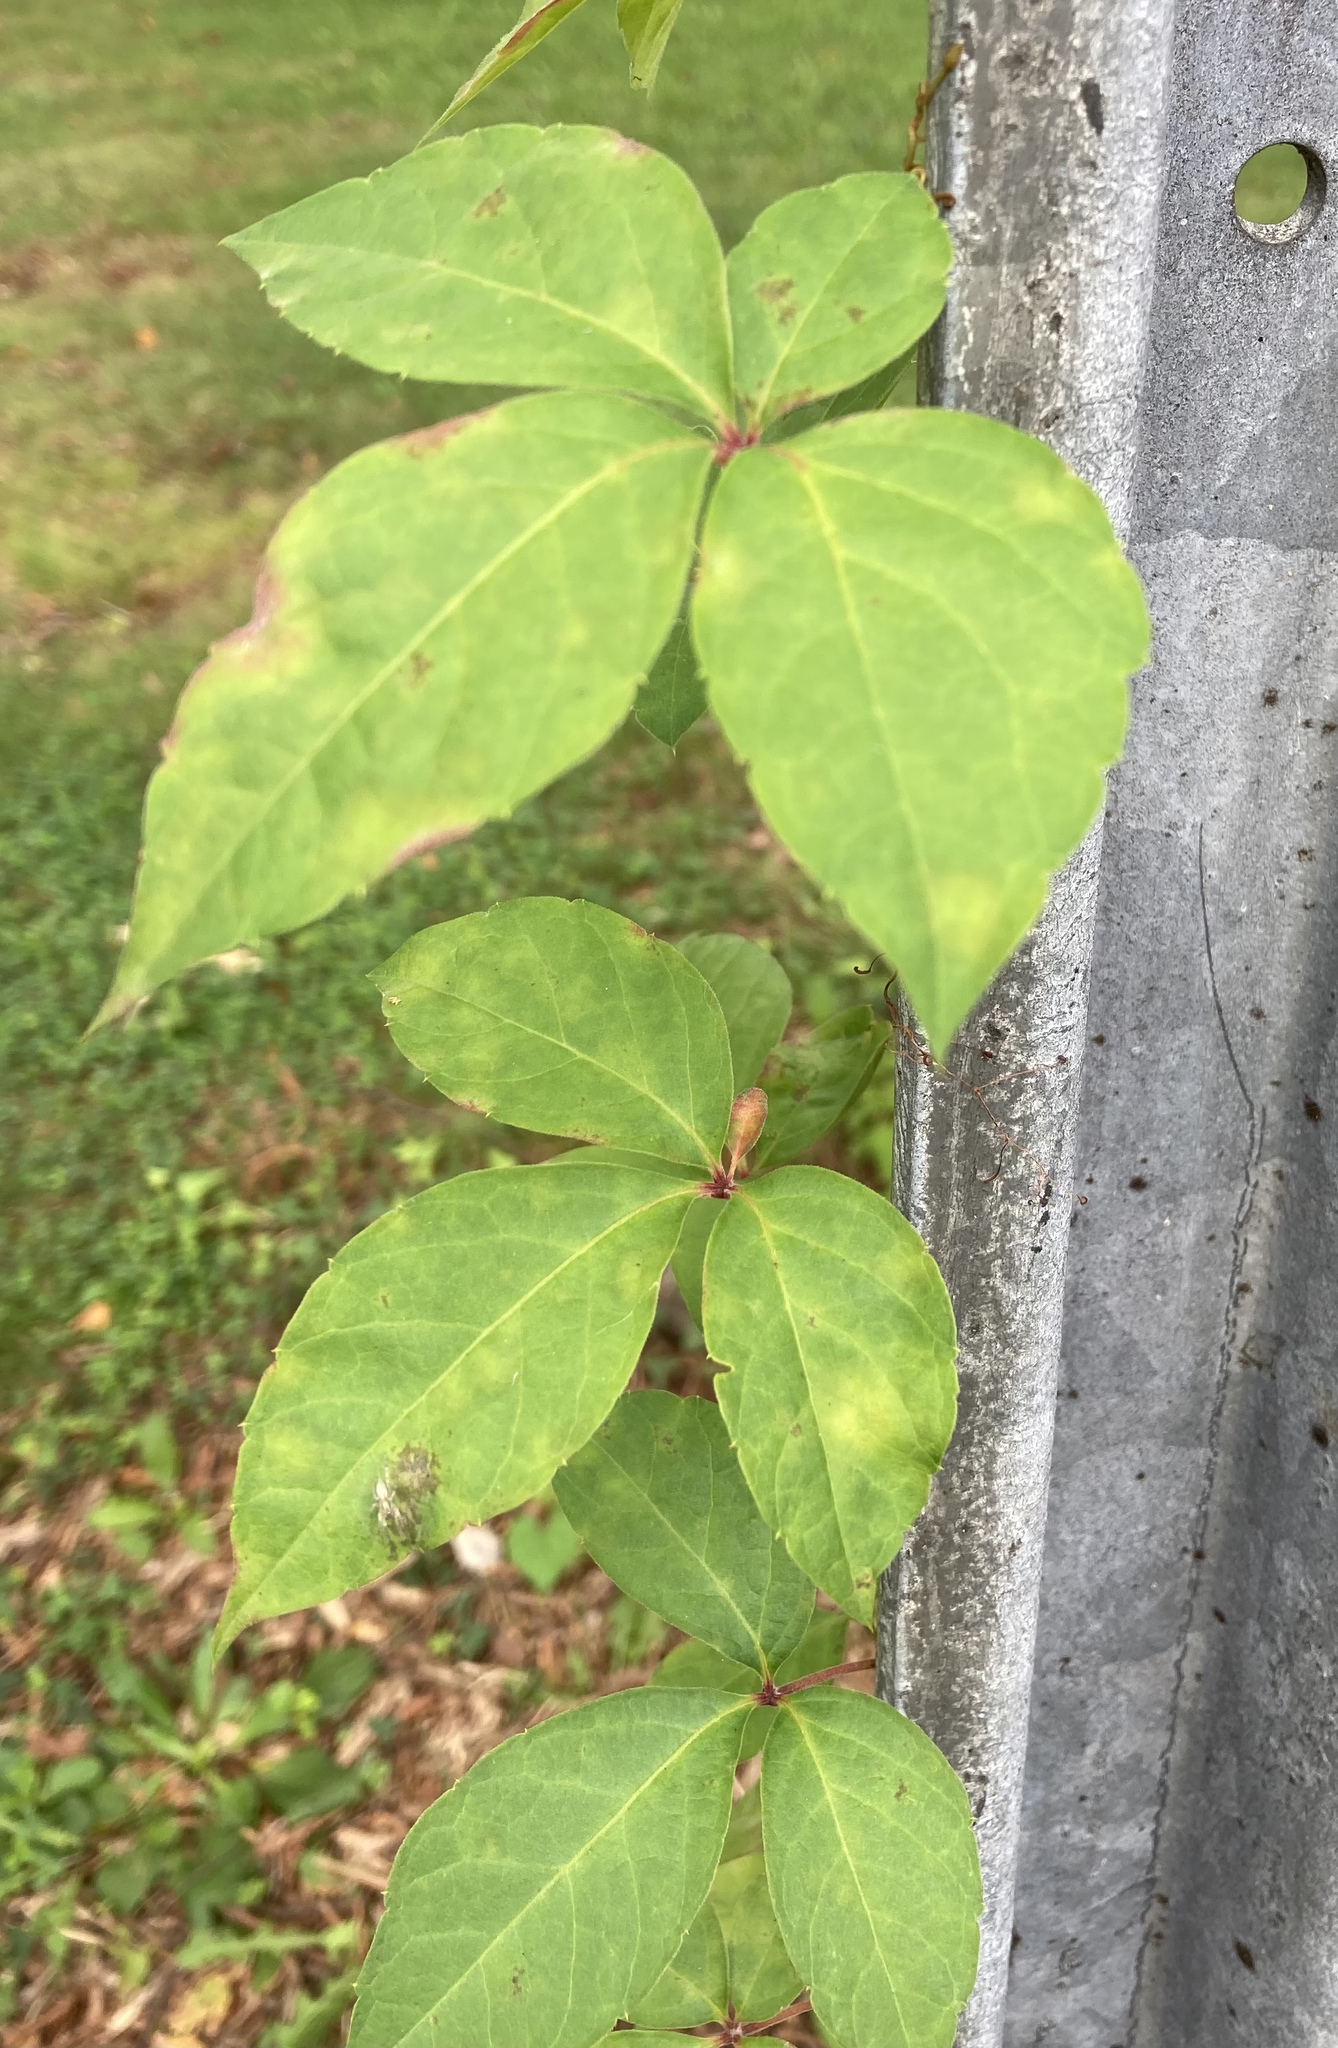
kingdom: Plantae
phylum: Tracheophyta
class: Magnoliopsida
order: Vitales
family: Vitaceae
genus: Parthenocissus
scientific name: Parthenocissus quinquefolia
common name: Virginia-creeper
